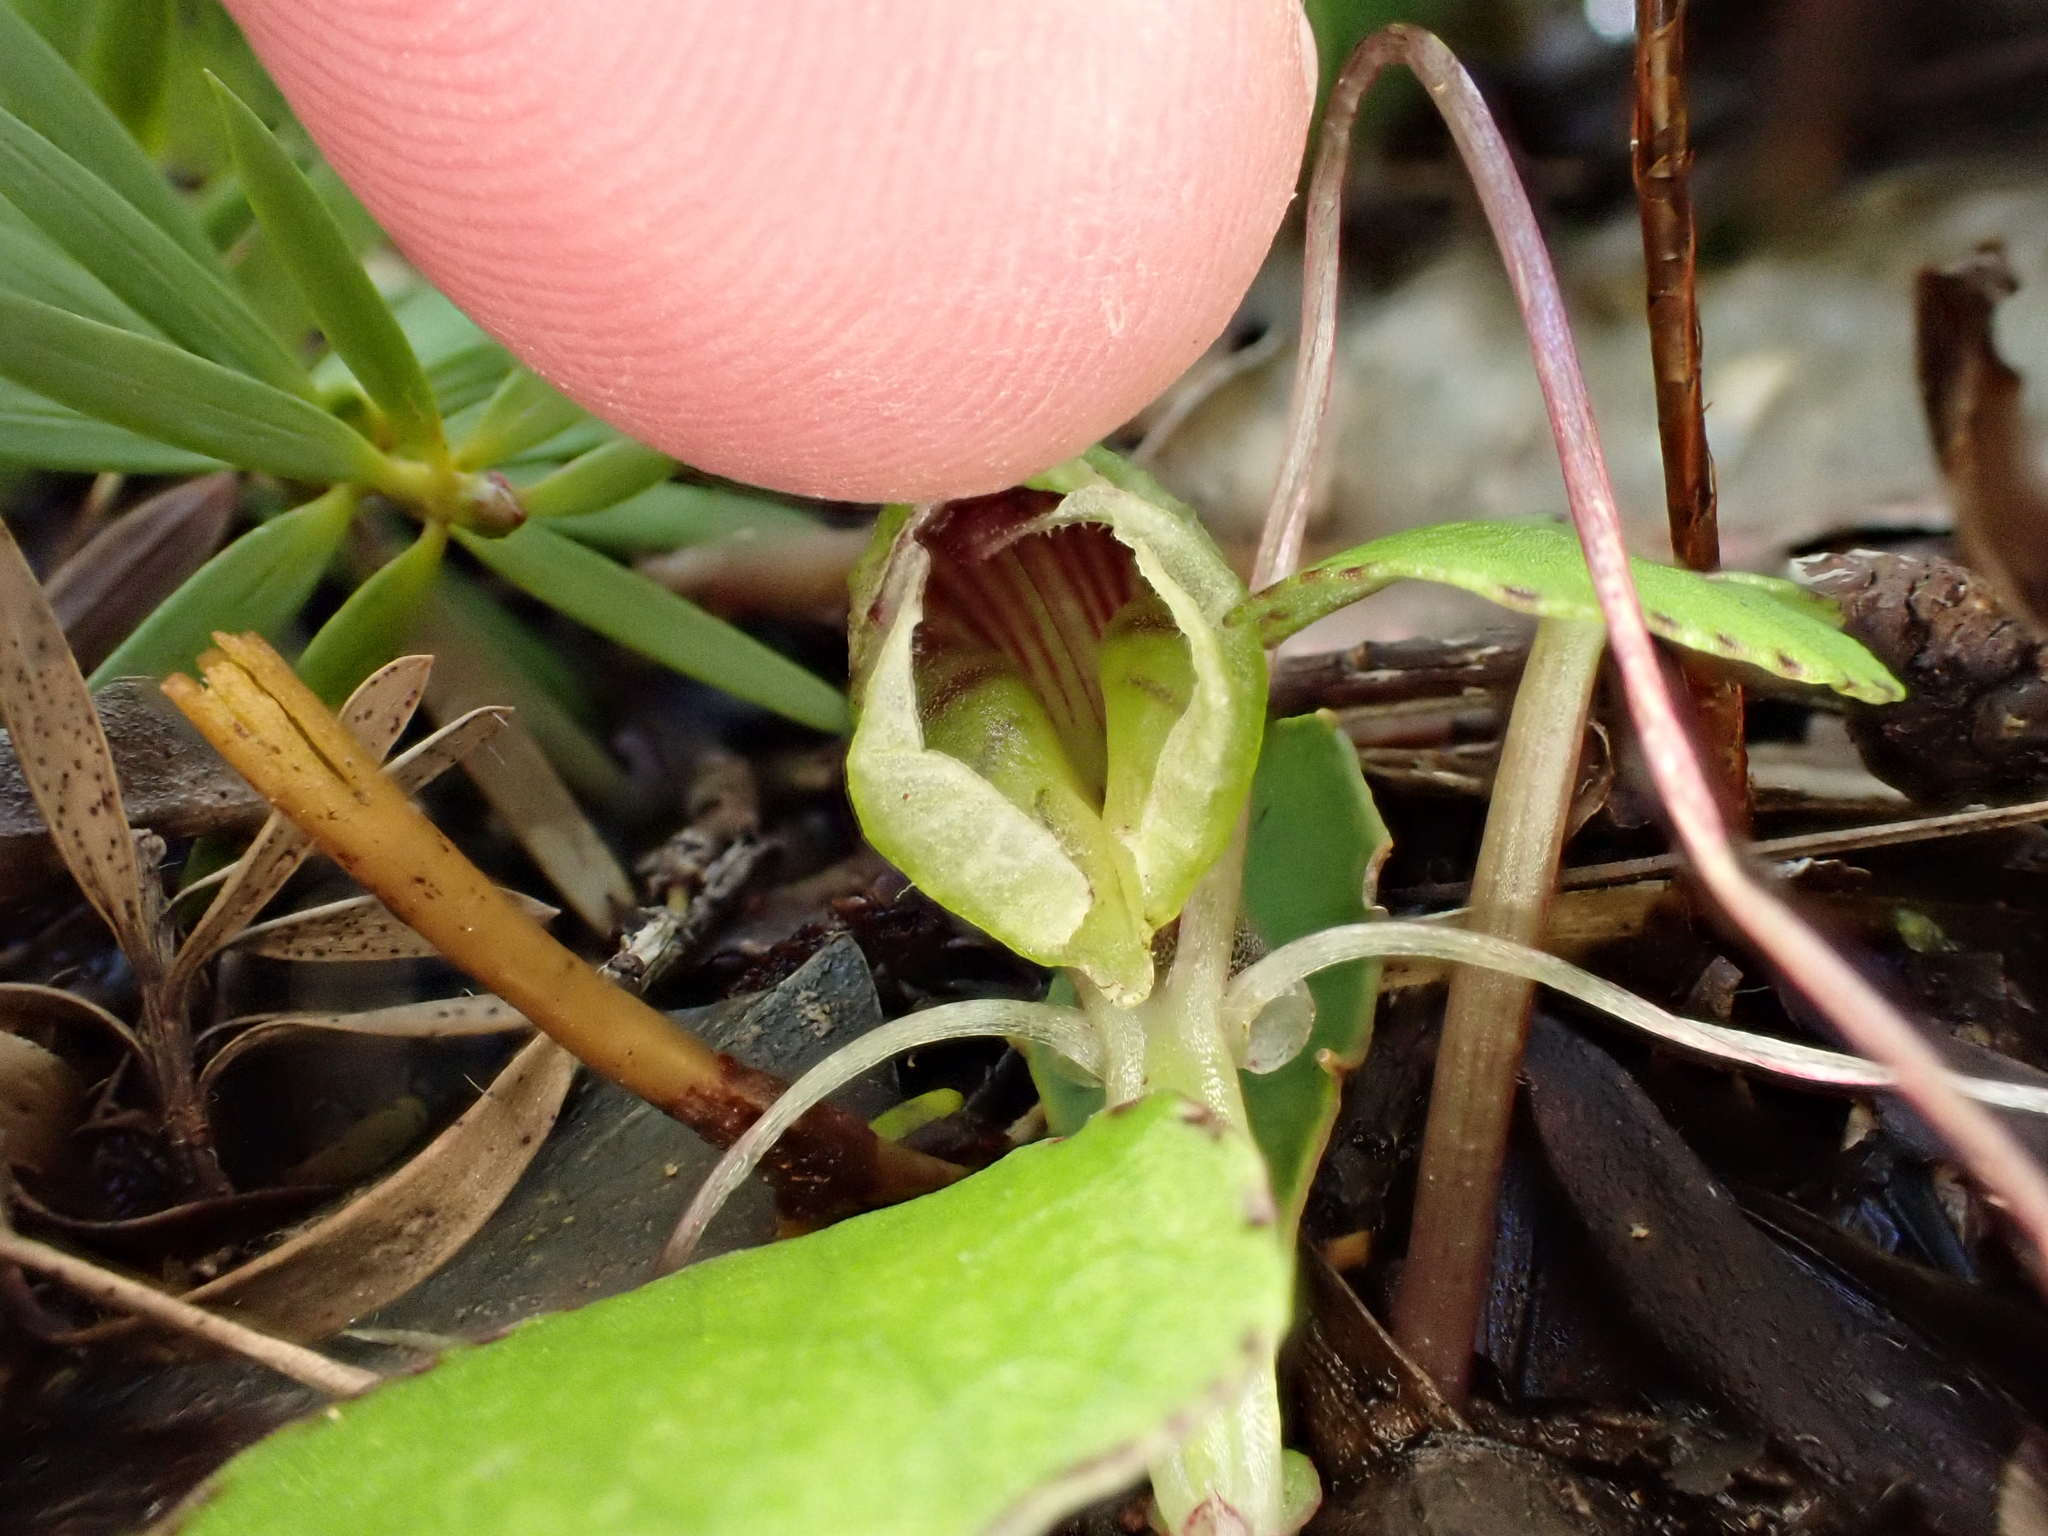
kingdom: Plantae
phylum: Tracheophyta
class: Liliopsida
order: Asparagales
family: Orchidaceae
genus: Corybas
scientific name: Corybas walliae
